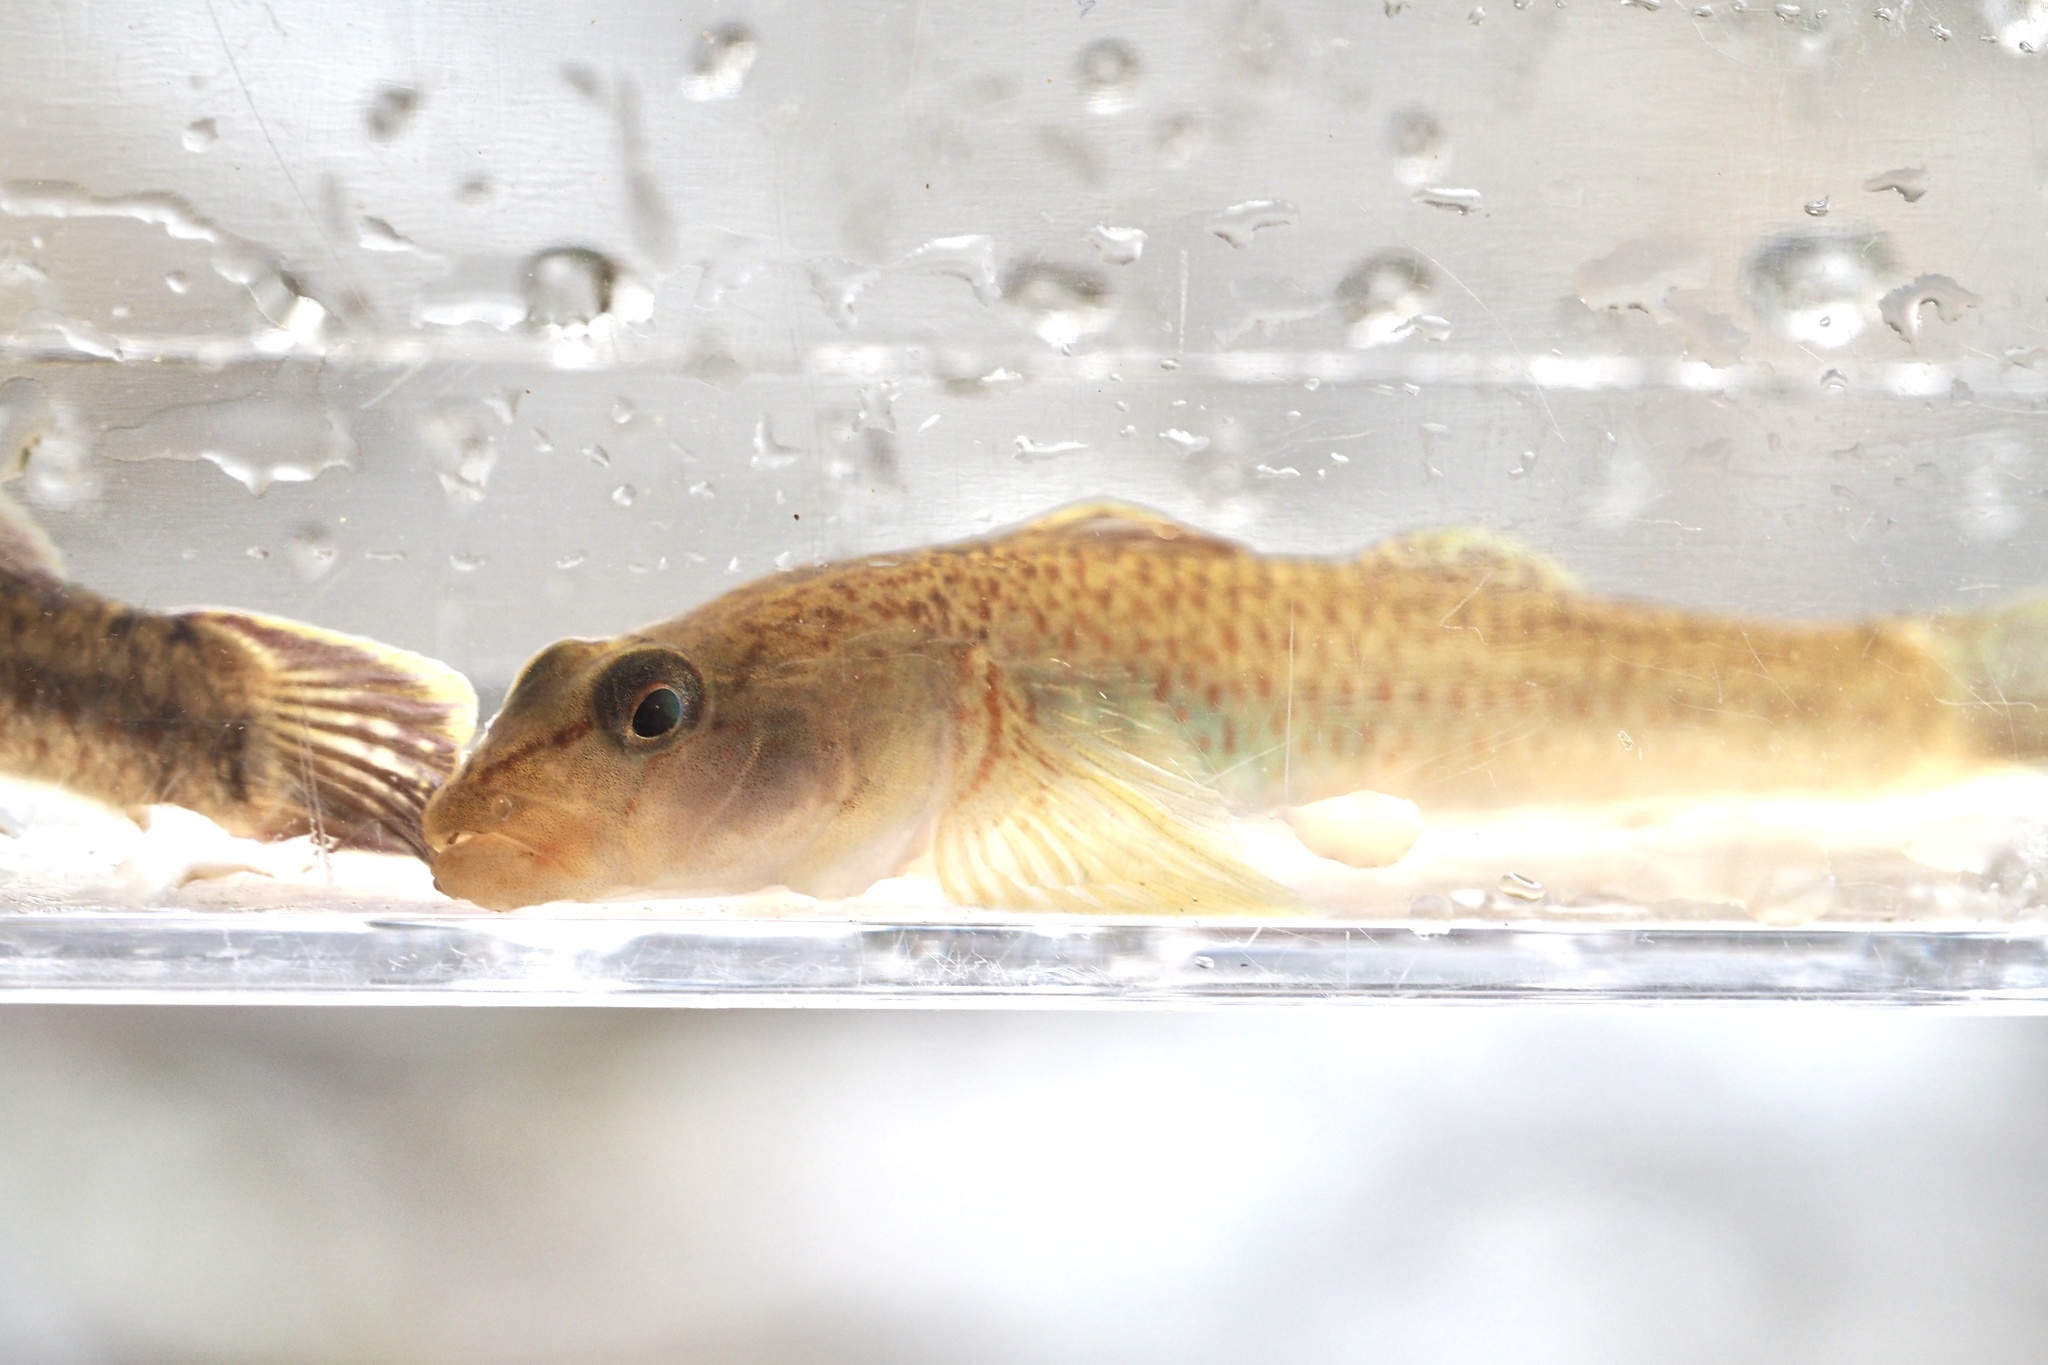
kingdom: Animalia
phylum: Chordata
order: Perciformes
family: Gobiidae
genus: Rhinogobius
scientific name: Rhinogobius flumineus
